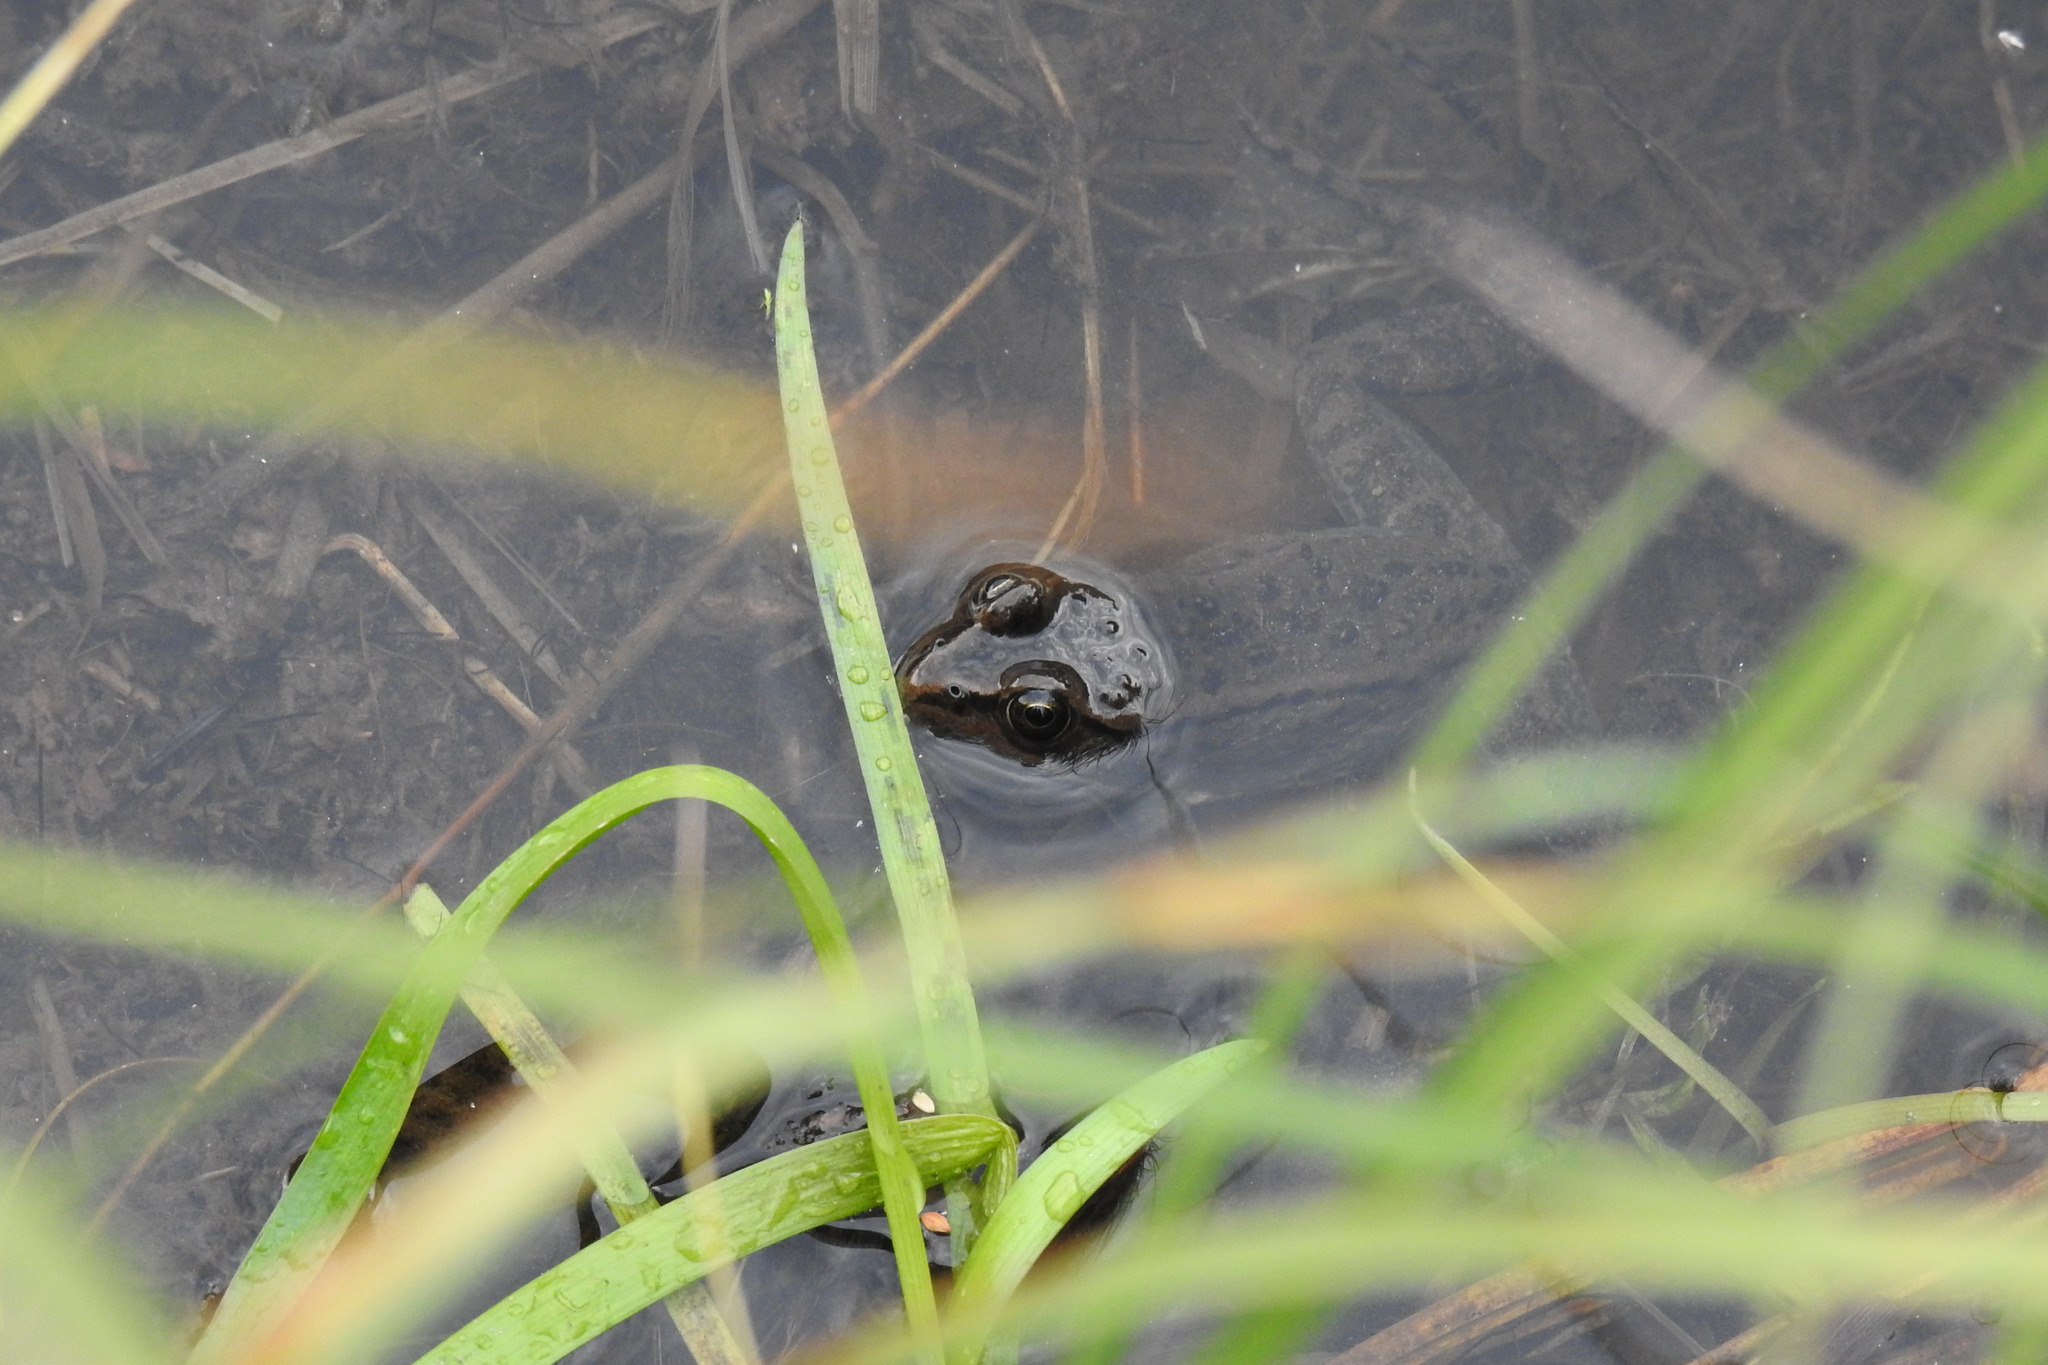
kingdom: Animalia
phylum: Chordata
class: Amphibia
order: Anura
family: Ranidae
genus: Rana
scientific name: Rana luteiventris
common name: Columbia spotted frog
